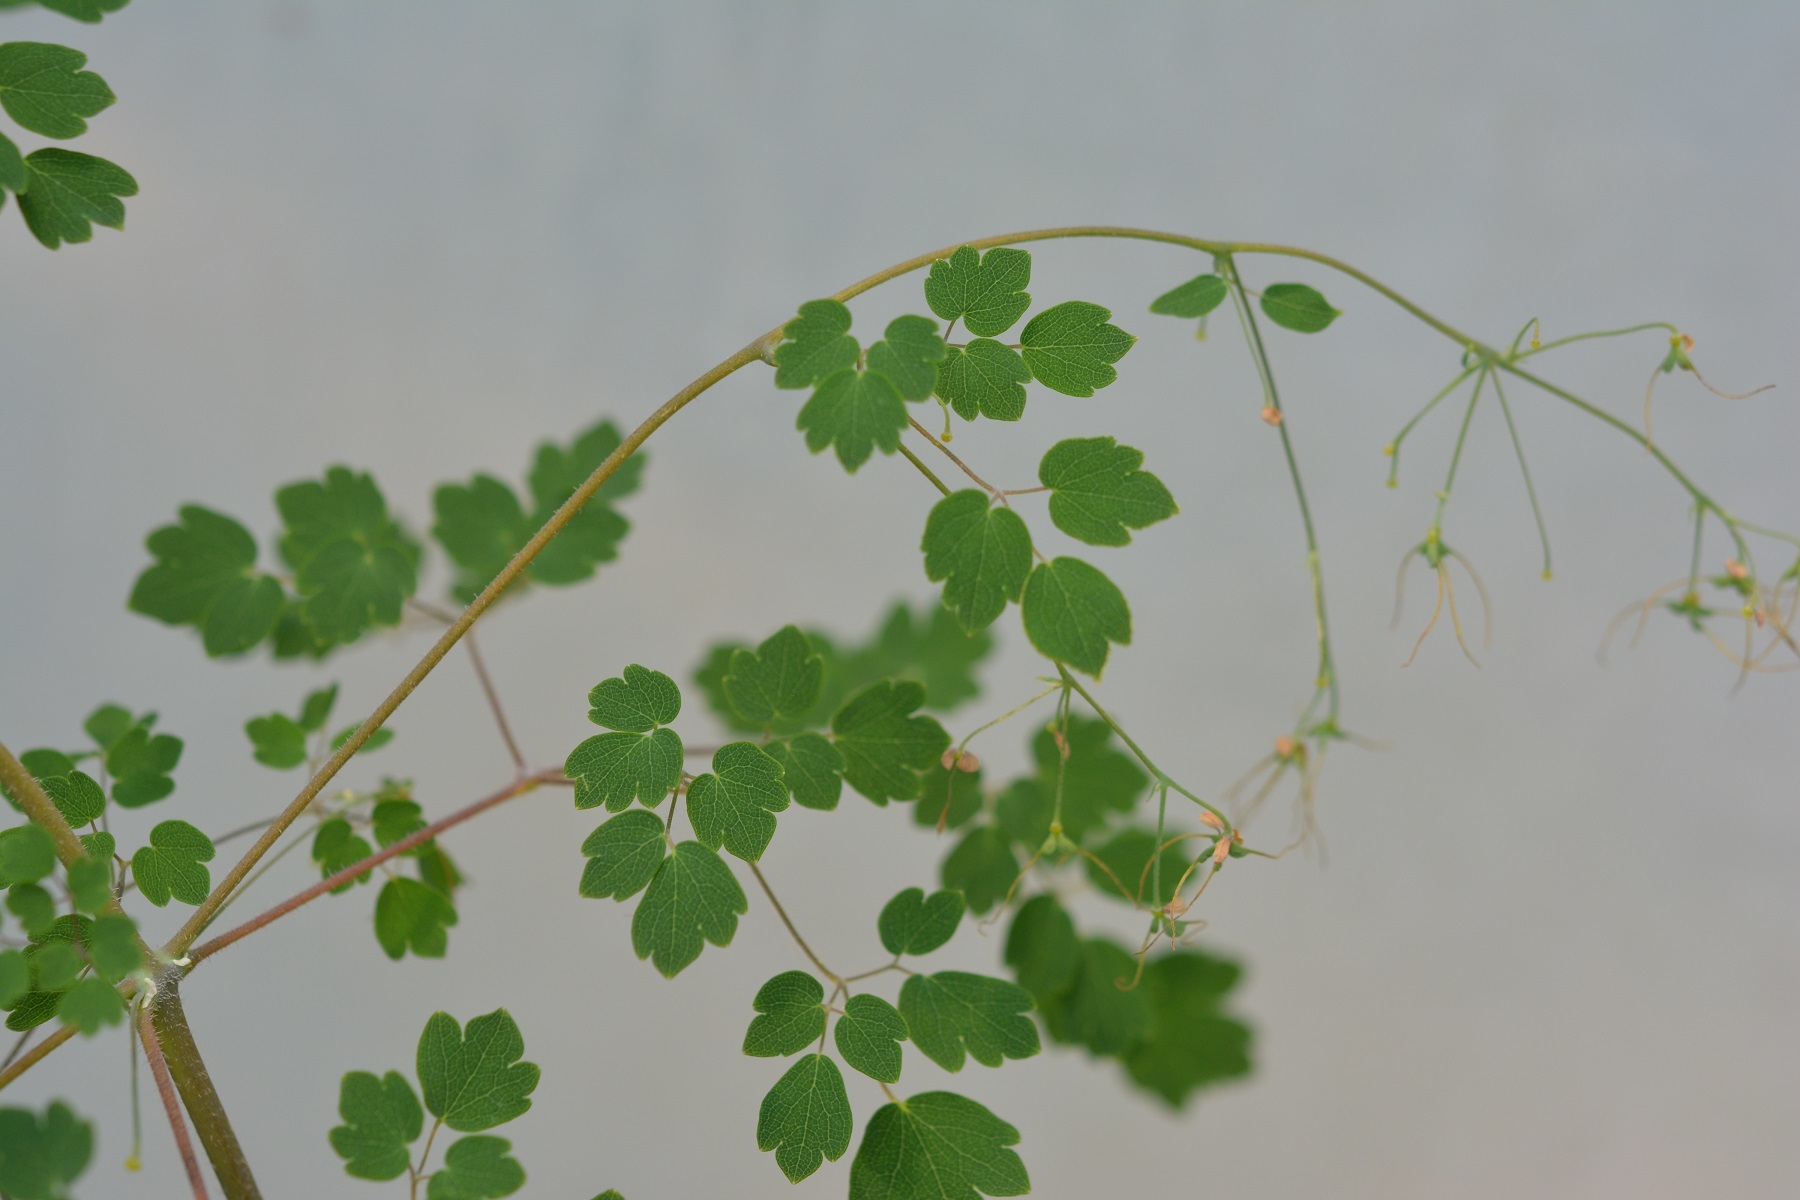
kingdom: Plantae
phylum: Tracheophyta
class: Magnoliopsida
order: Ranunculales
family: Ranunculaceae
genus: Thalictrum
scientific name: Thalictrum guatemalense
